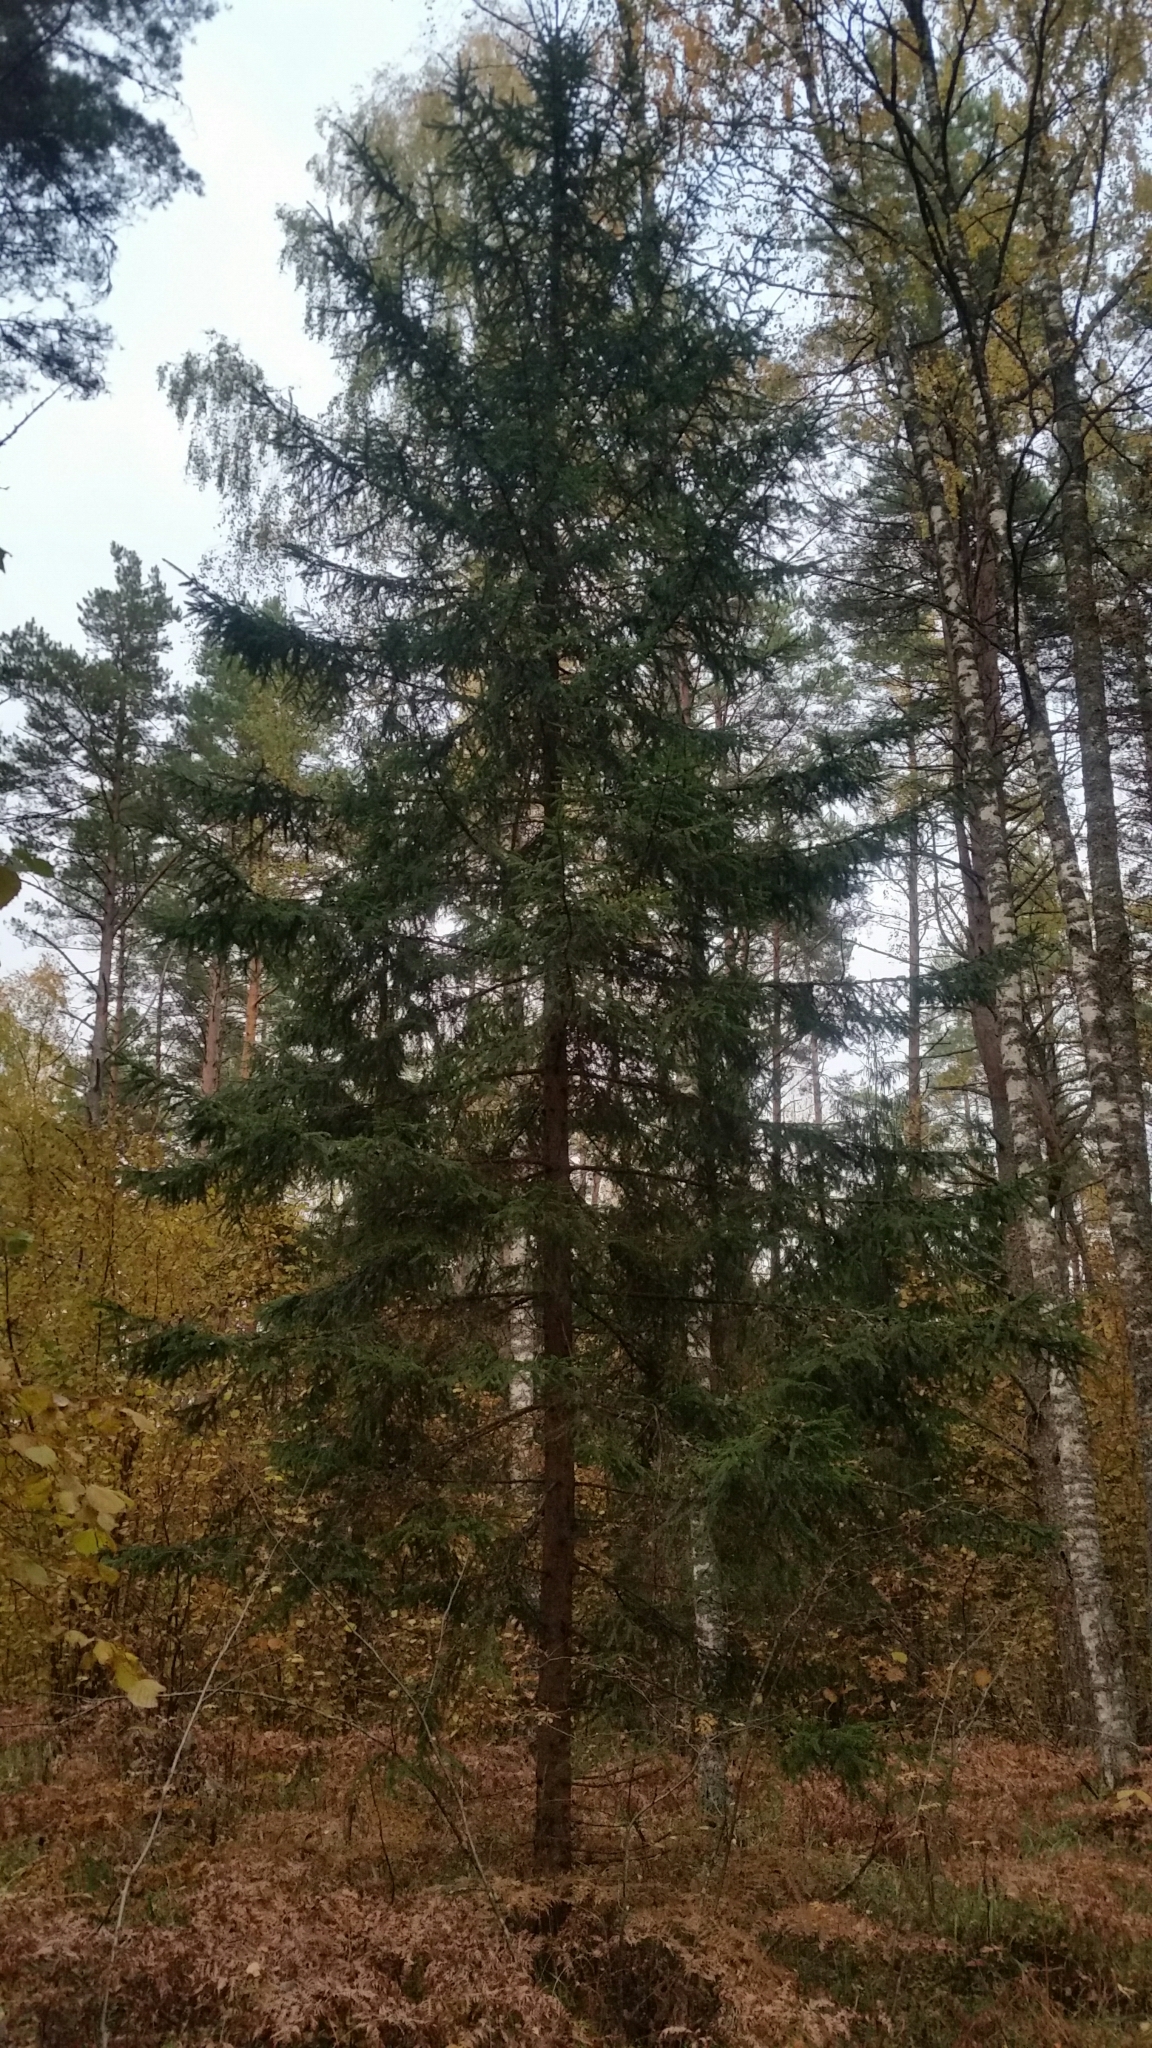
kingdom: Plantae
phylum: Tracheophyta
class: Pinopsida
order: Pinales
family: Pinaceae
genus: Picea
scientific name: Picea abies
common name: Norway spruce
